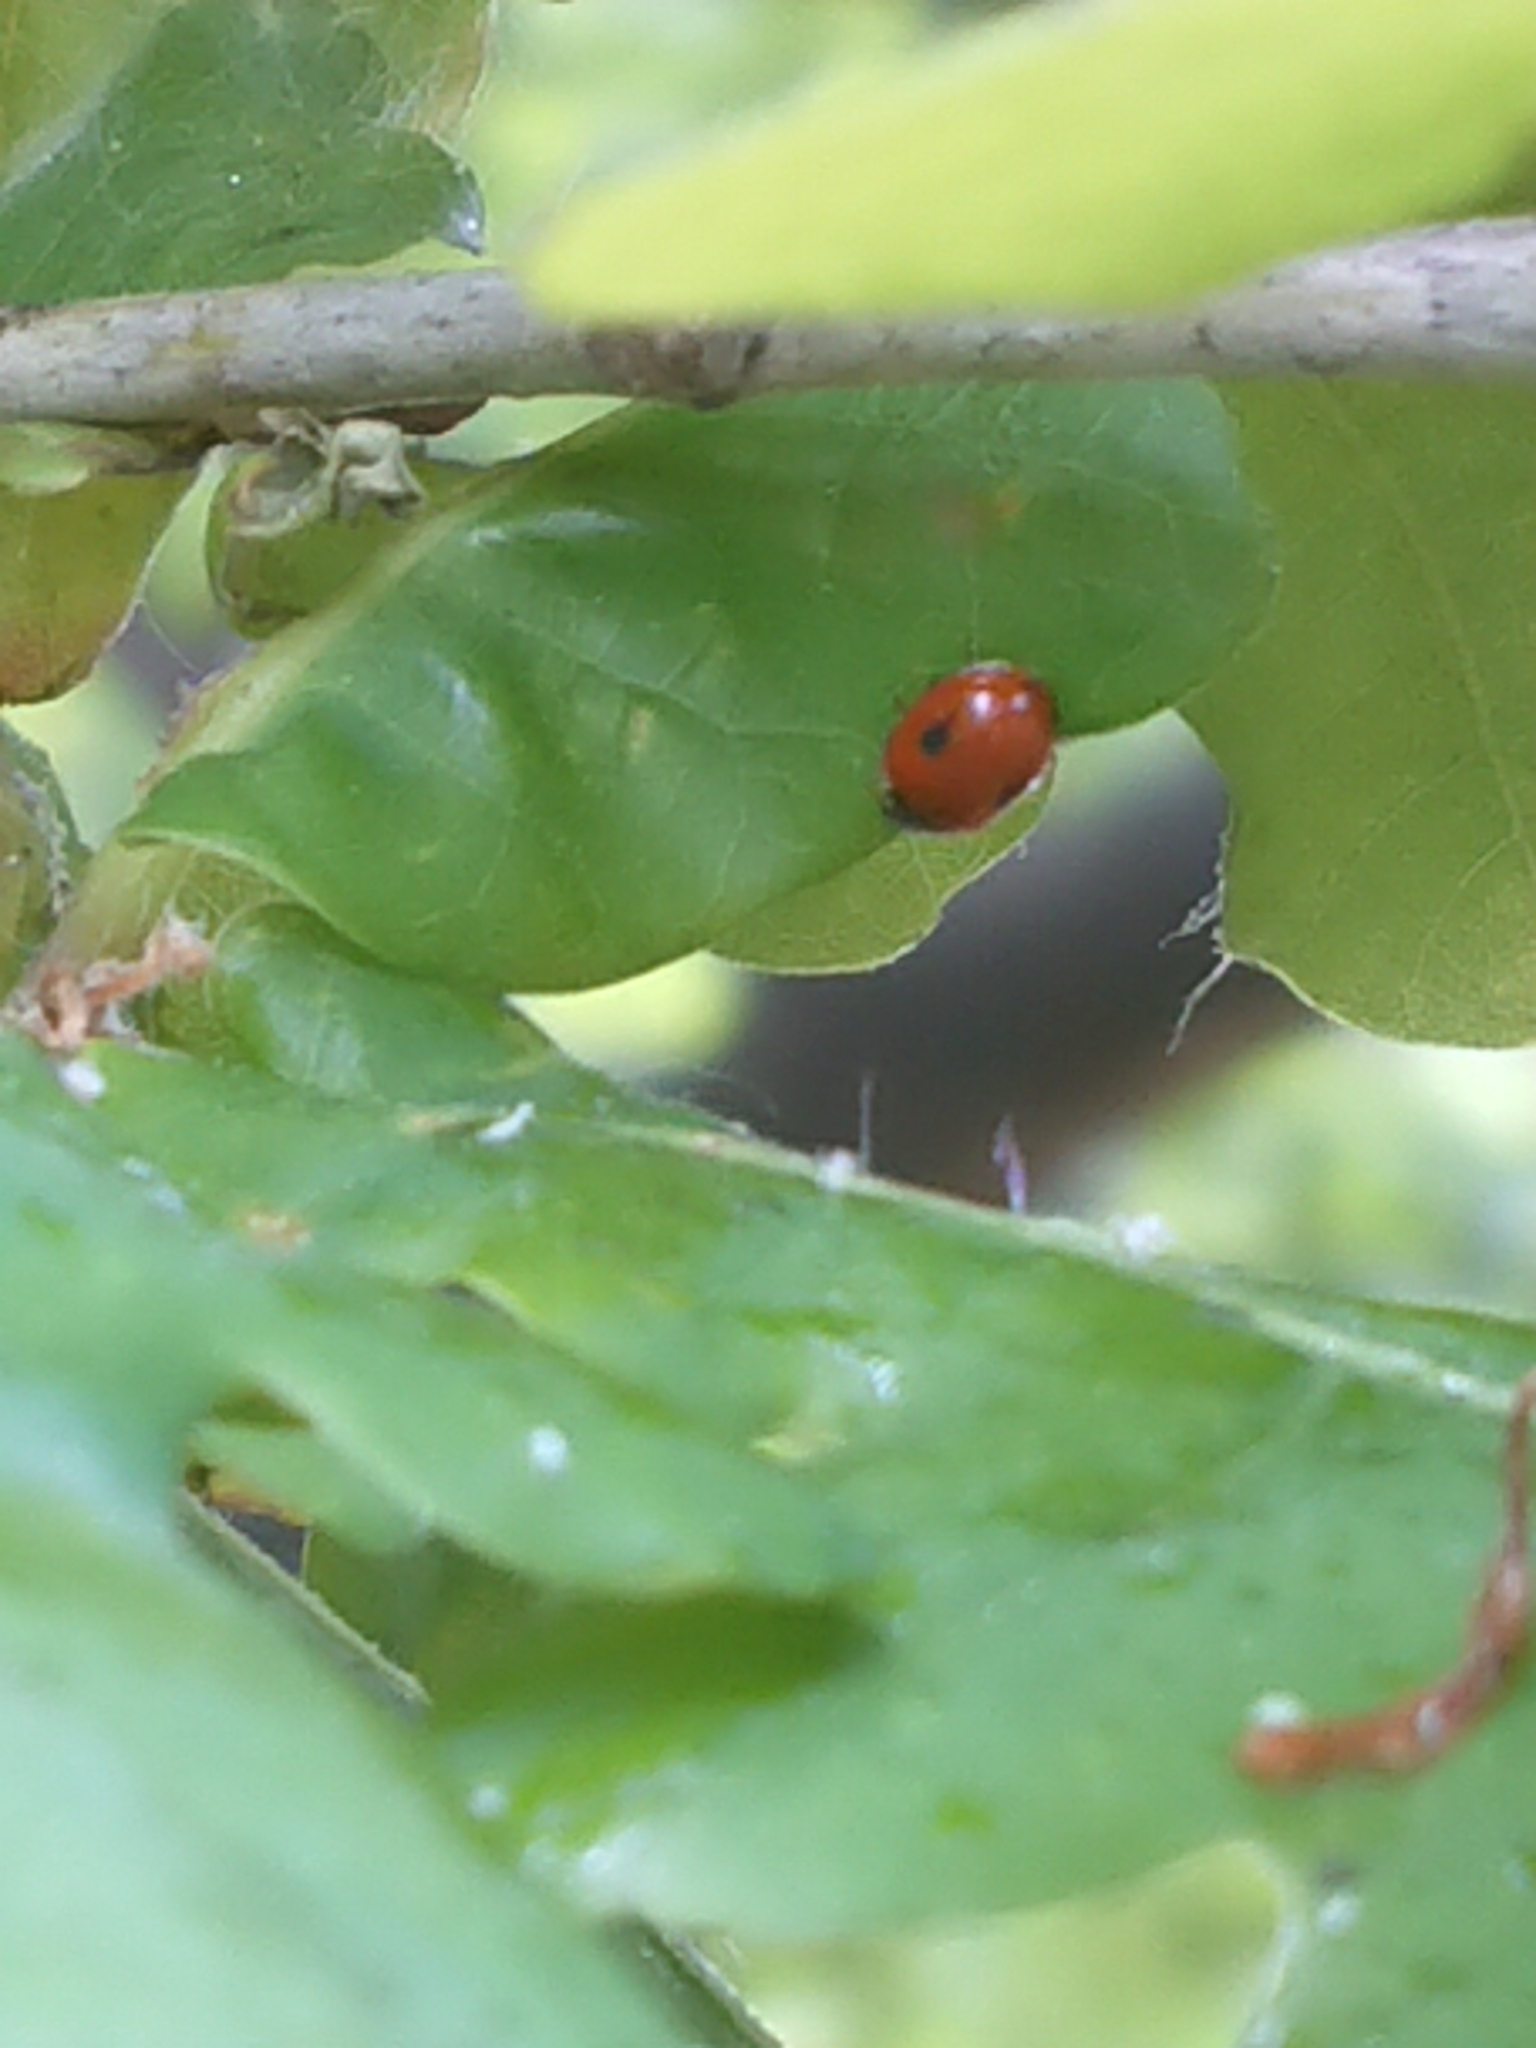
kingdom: Animalia
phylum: Arthropoda
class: Insecta
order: Coleoptera
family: Coccinellidae
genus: Adalia
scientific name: Adalia bipunctata
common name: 2-spot ladybird
